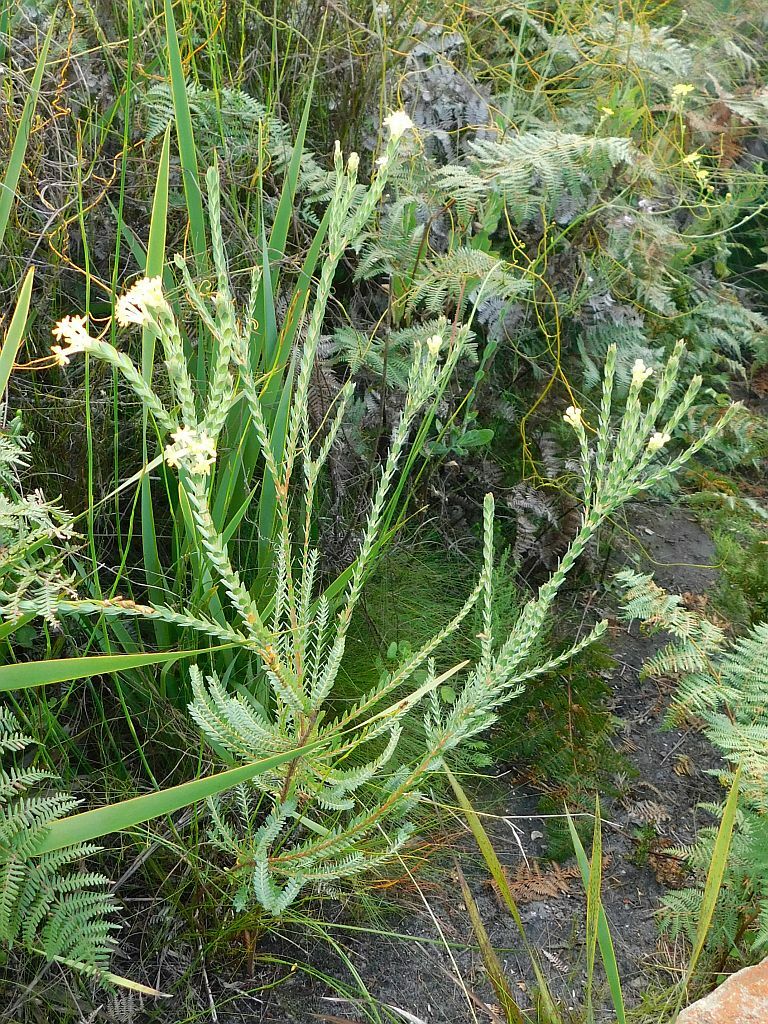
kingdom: Plantae
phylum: Tracheophyta
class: Magnoliopsida
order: Malvales
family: Thymelaeaceae
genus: Gnidia
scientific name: Gnidia oppositifolia
